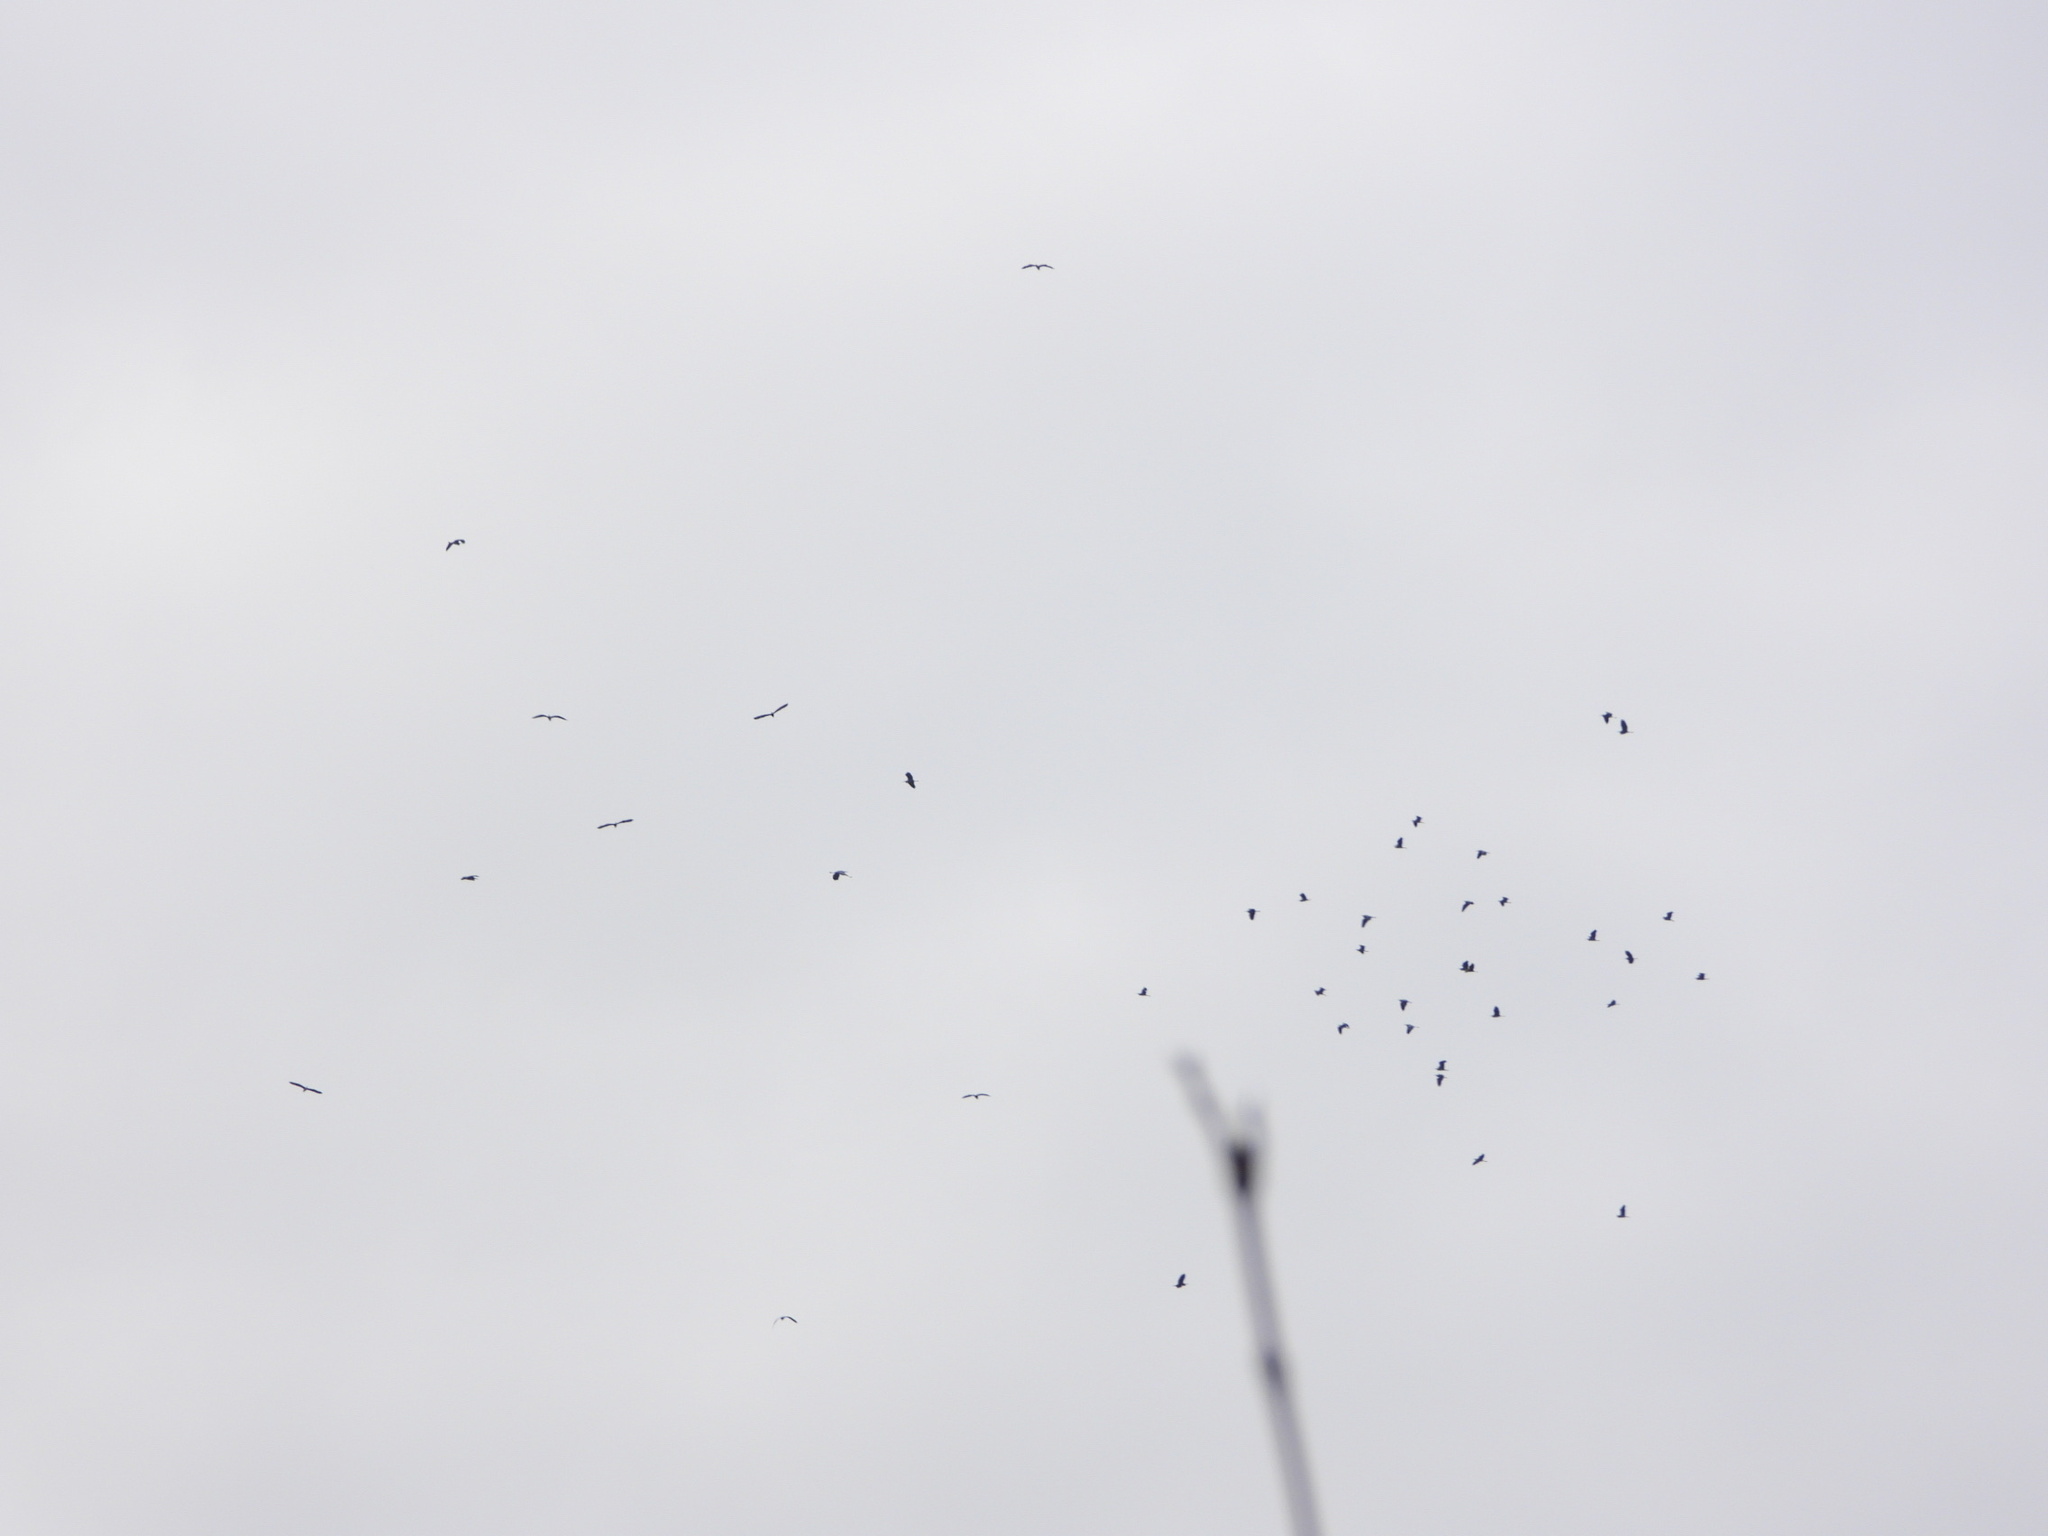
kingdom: Animalia
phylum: Chordata
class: Aves
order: Pelecaniformes
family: Ardeidae
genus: Ardea
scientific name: Ardea herodias
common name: Great blue heron
